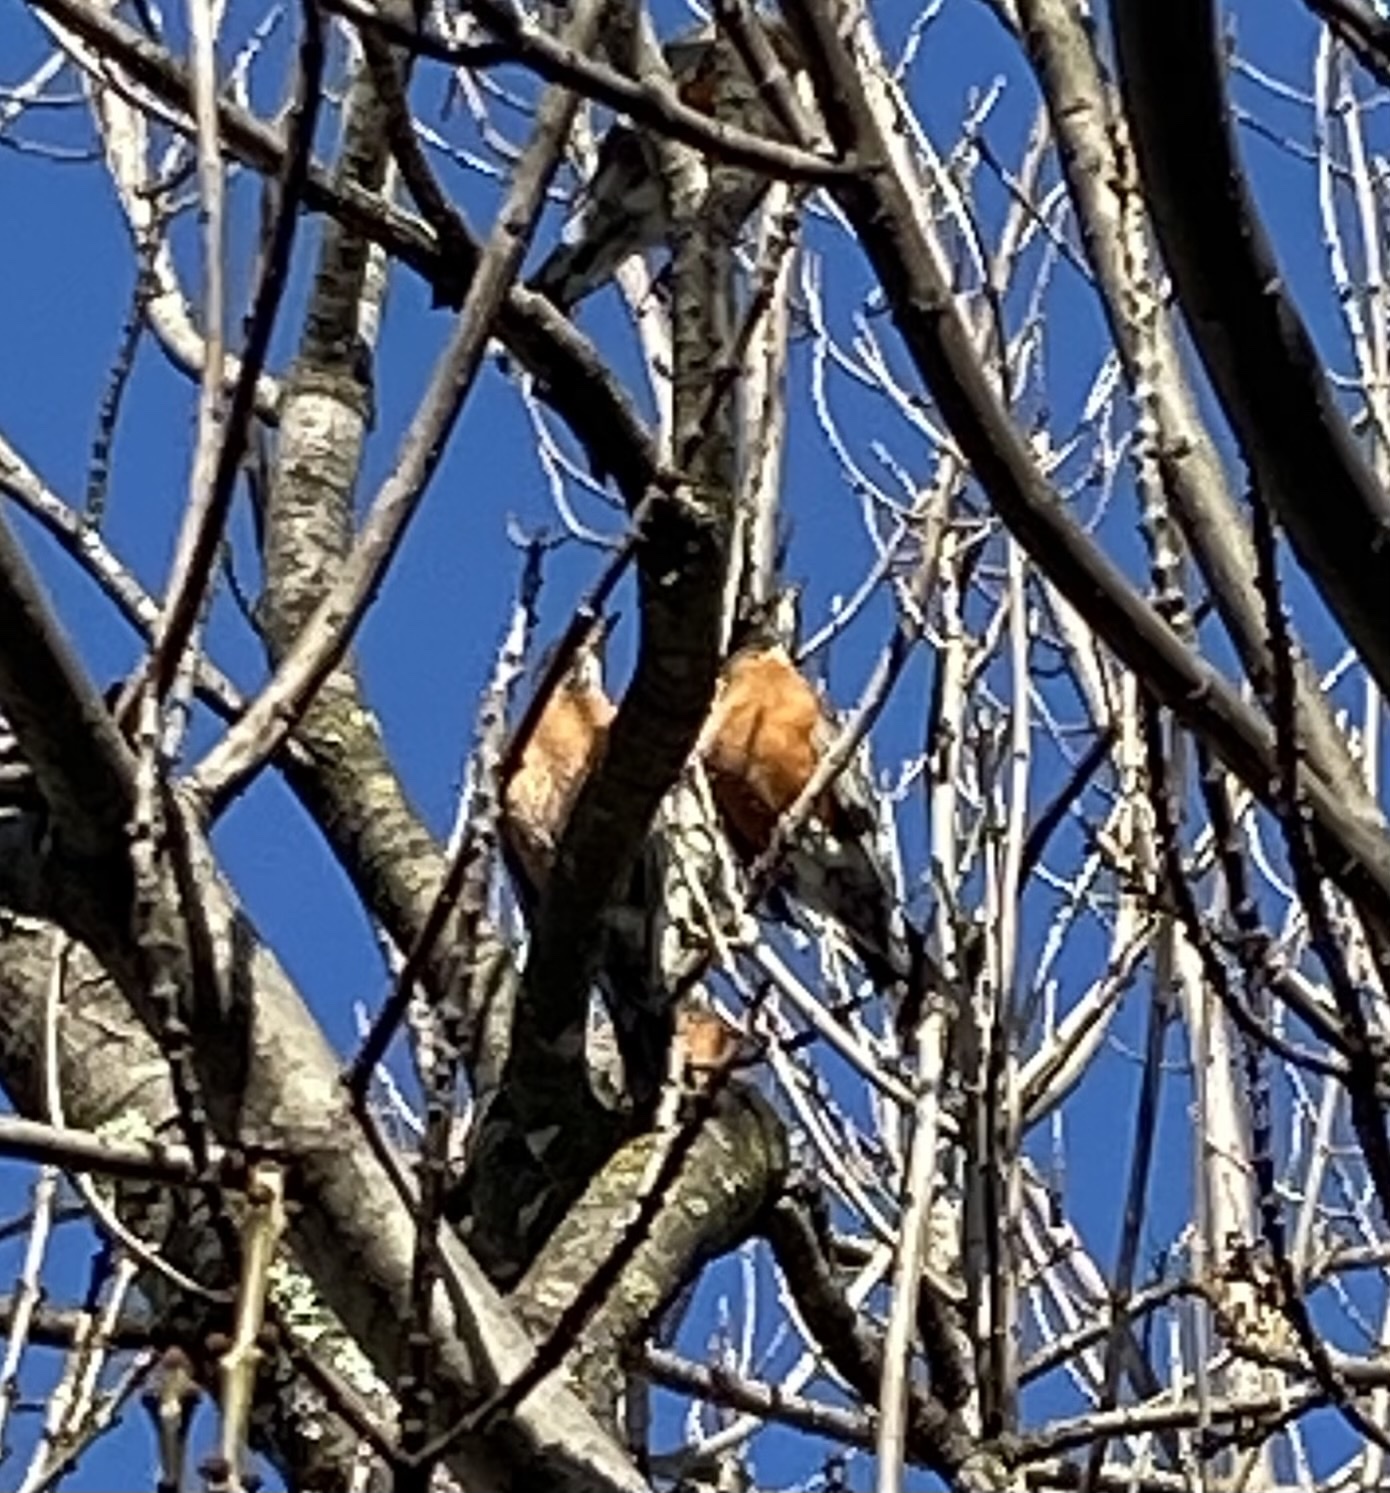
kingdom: Animalia
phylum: Chordata
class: Aves
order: Passeriformes
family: Turdidae
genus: Turdus
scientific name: Turdus migratorius
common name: American robin
